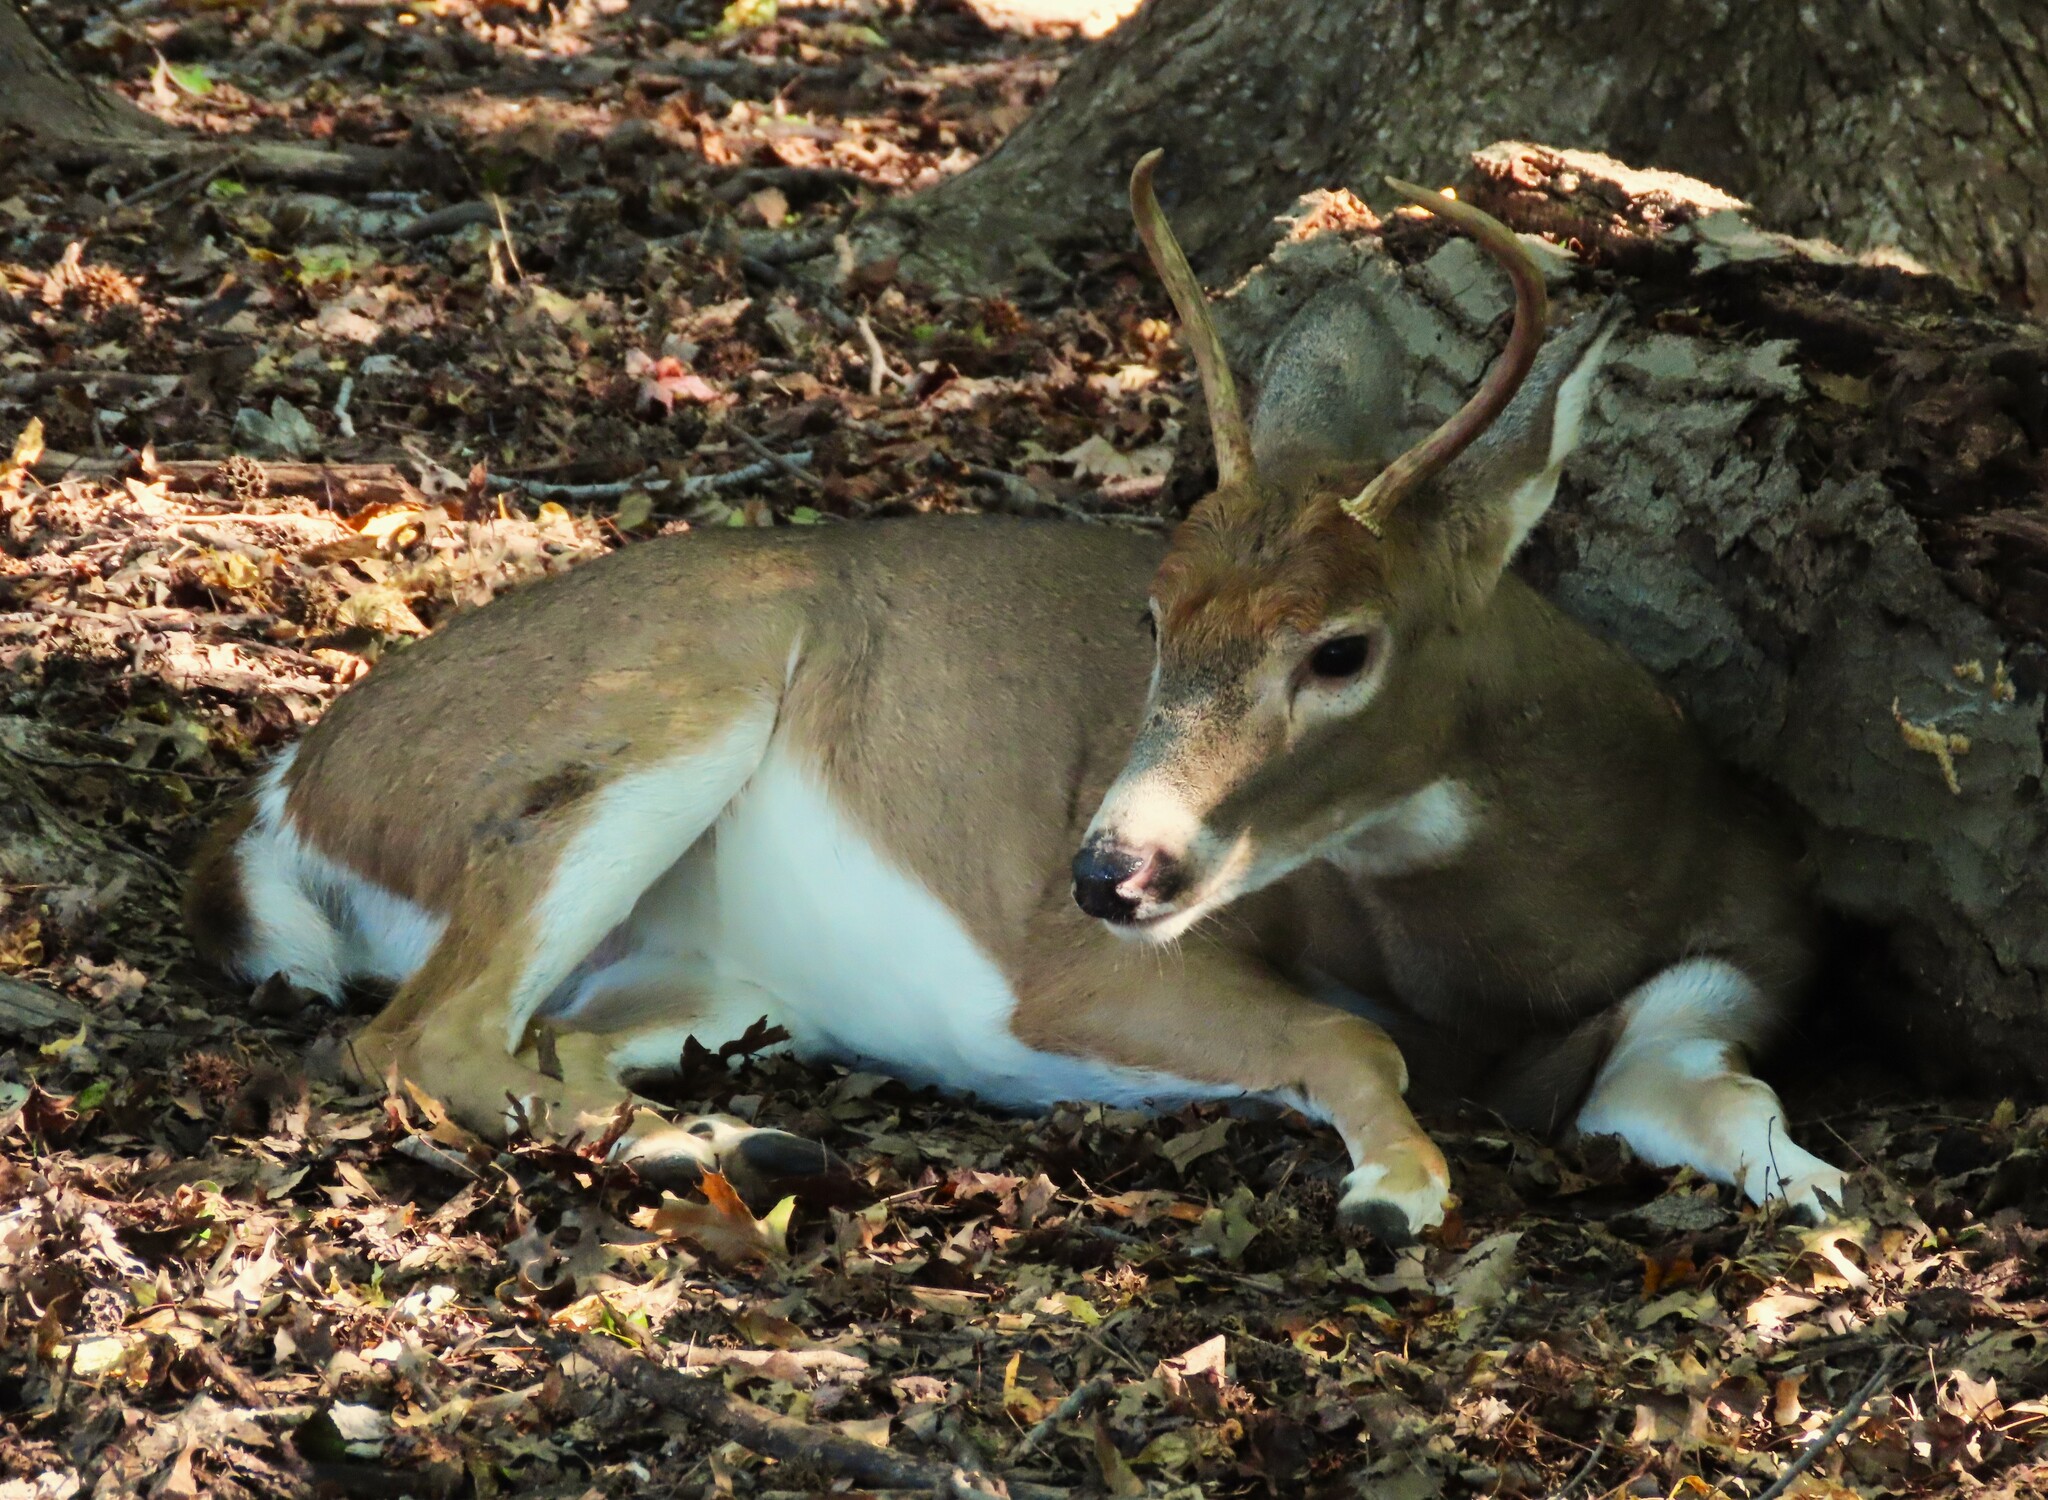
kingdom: Animalia
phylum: Chordata
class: Mammalia
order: Artiodactyla
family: Cervidae
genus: Odocoileus
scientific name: Odocoileus virginianus
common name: White-tailed deer
